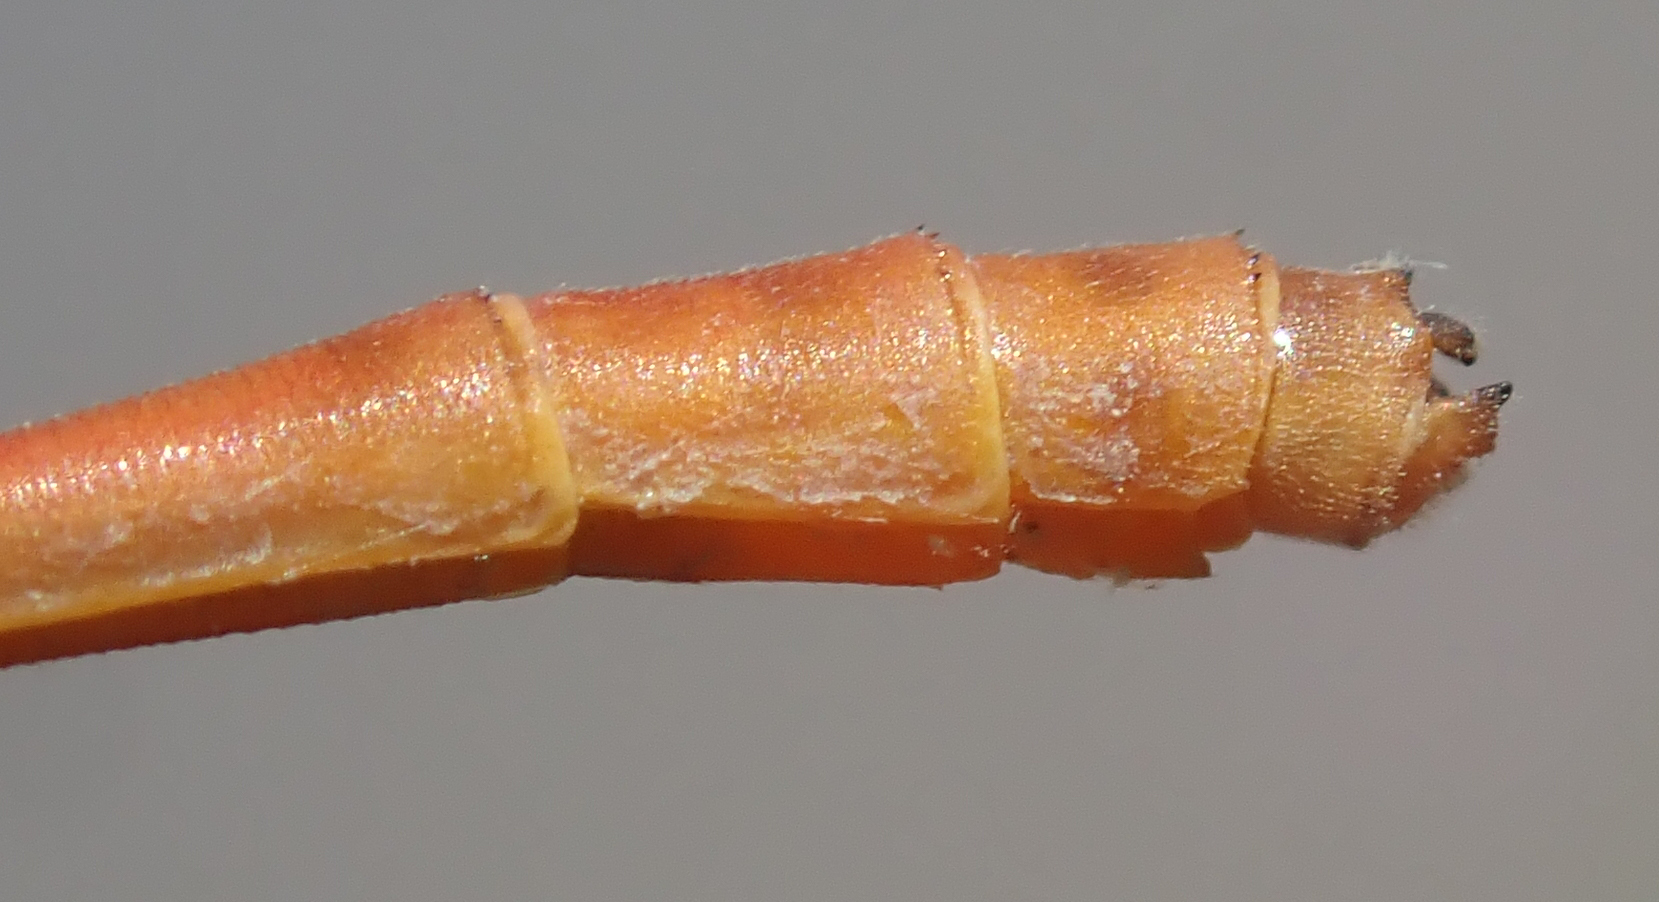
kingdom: Animalia
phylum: Arthropoda
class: Insecta
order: Odonata
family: Coenagrionidae
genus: Ceriagrion
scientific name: Ceriagrion glabrum
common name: Common pond damsel
